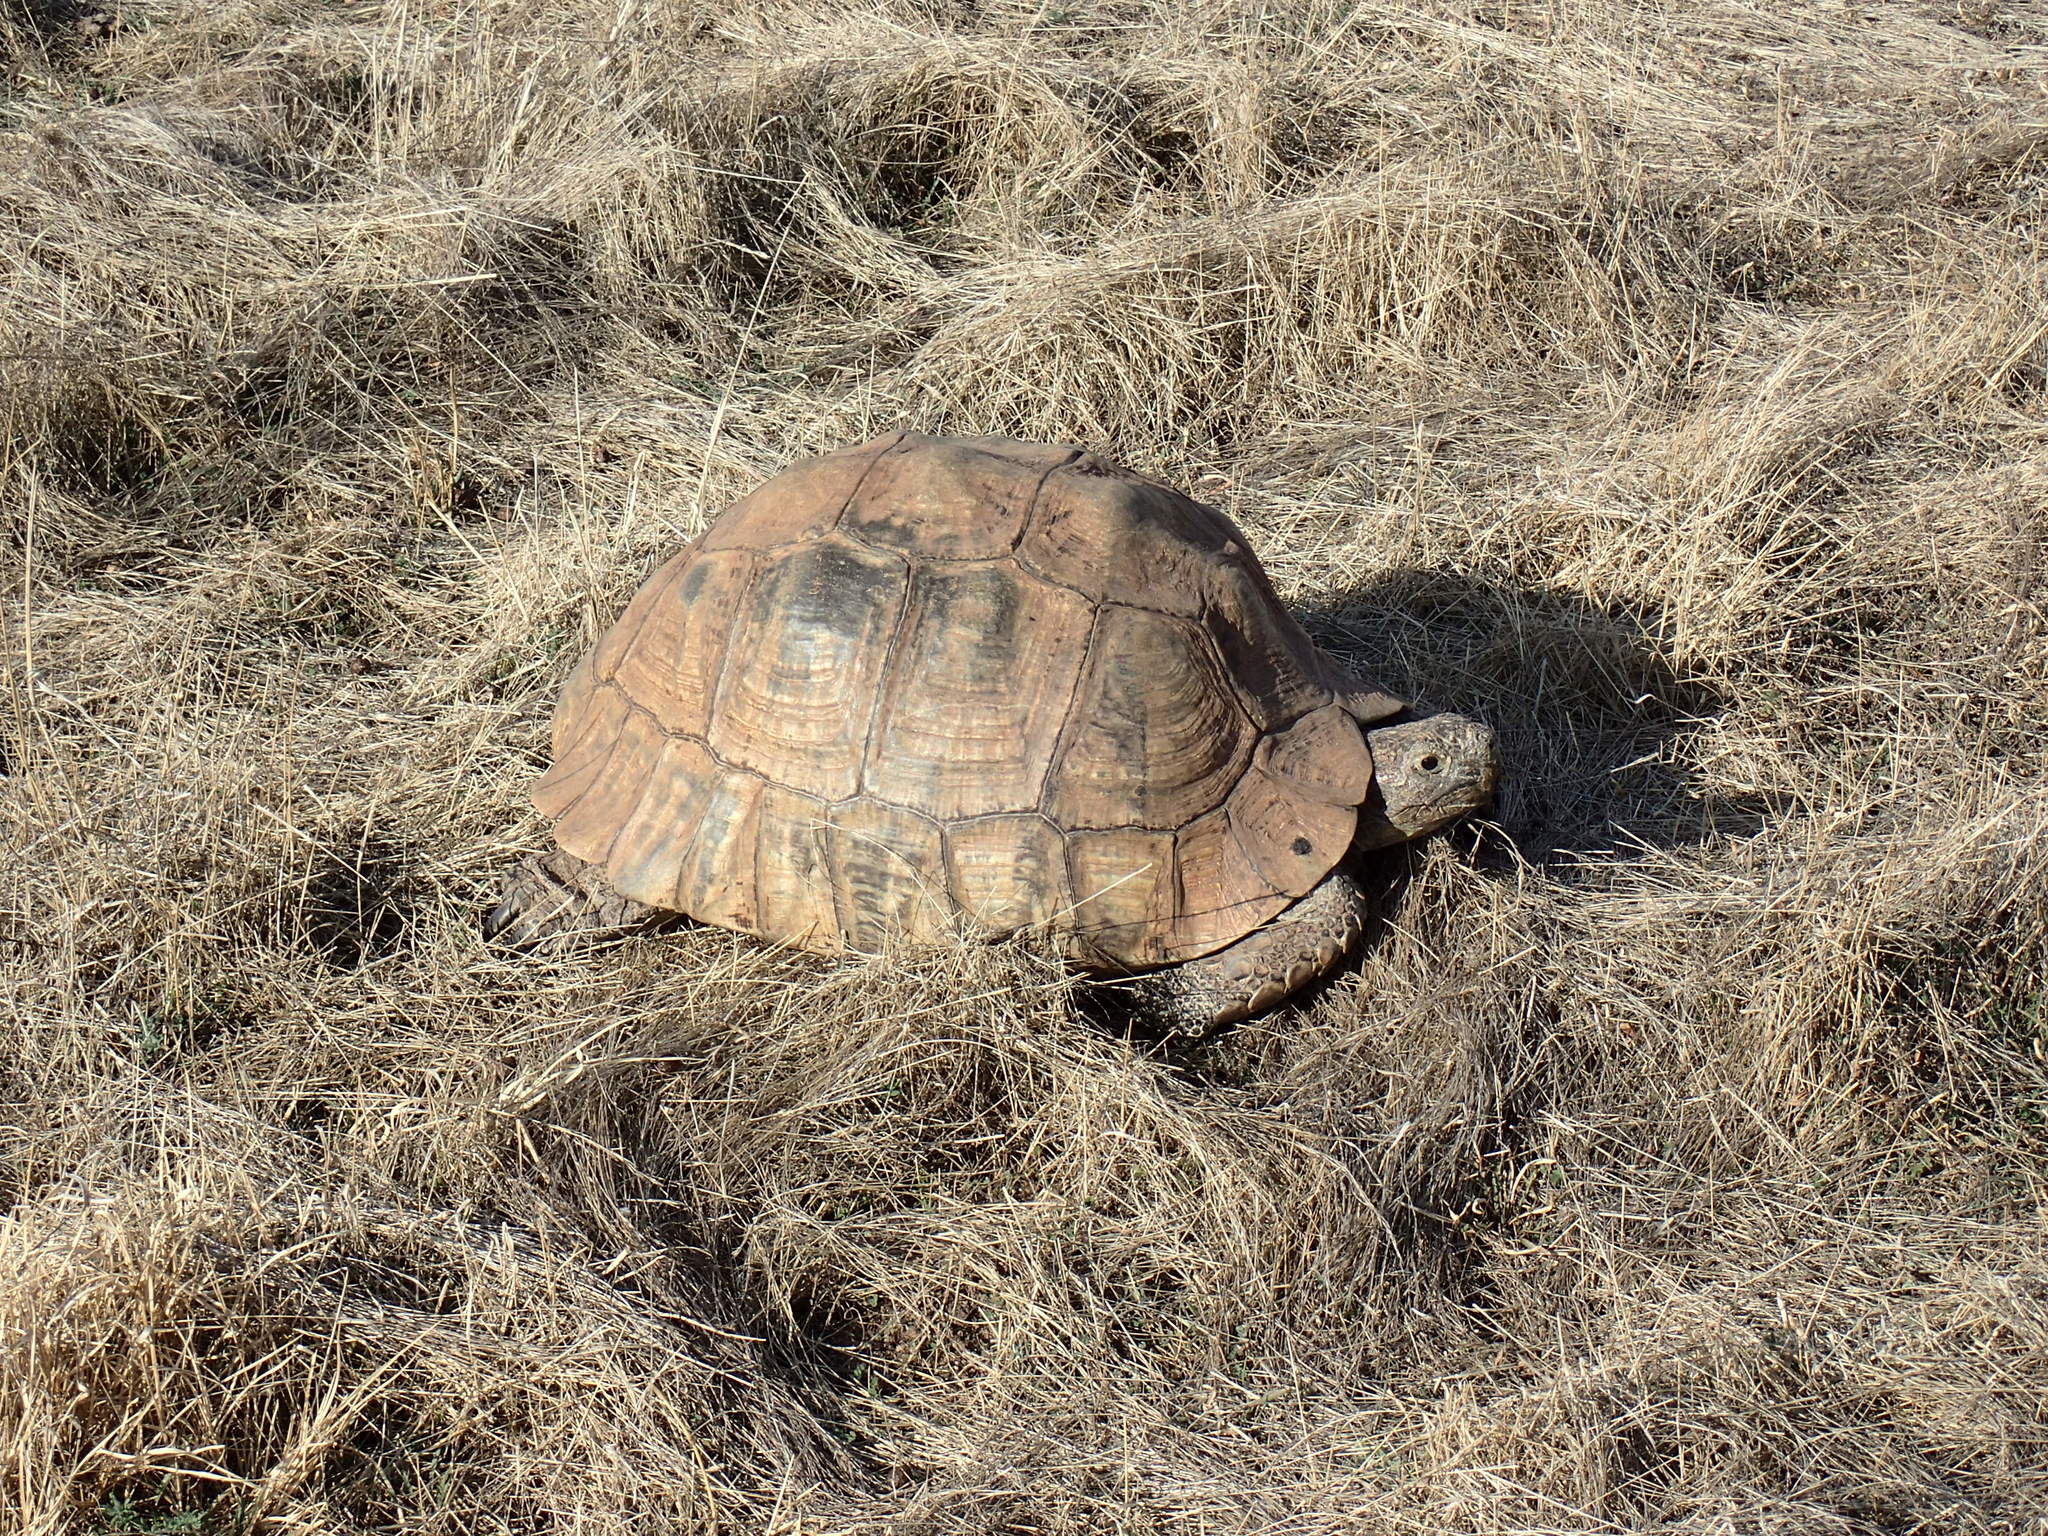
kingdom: Animalia
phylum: Chordata
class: Testudines
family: Testudinidae
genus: Stigmochelys
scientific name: Stigmochelys pardalis
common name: Leopard tortoise
